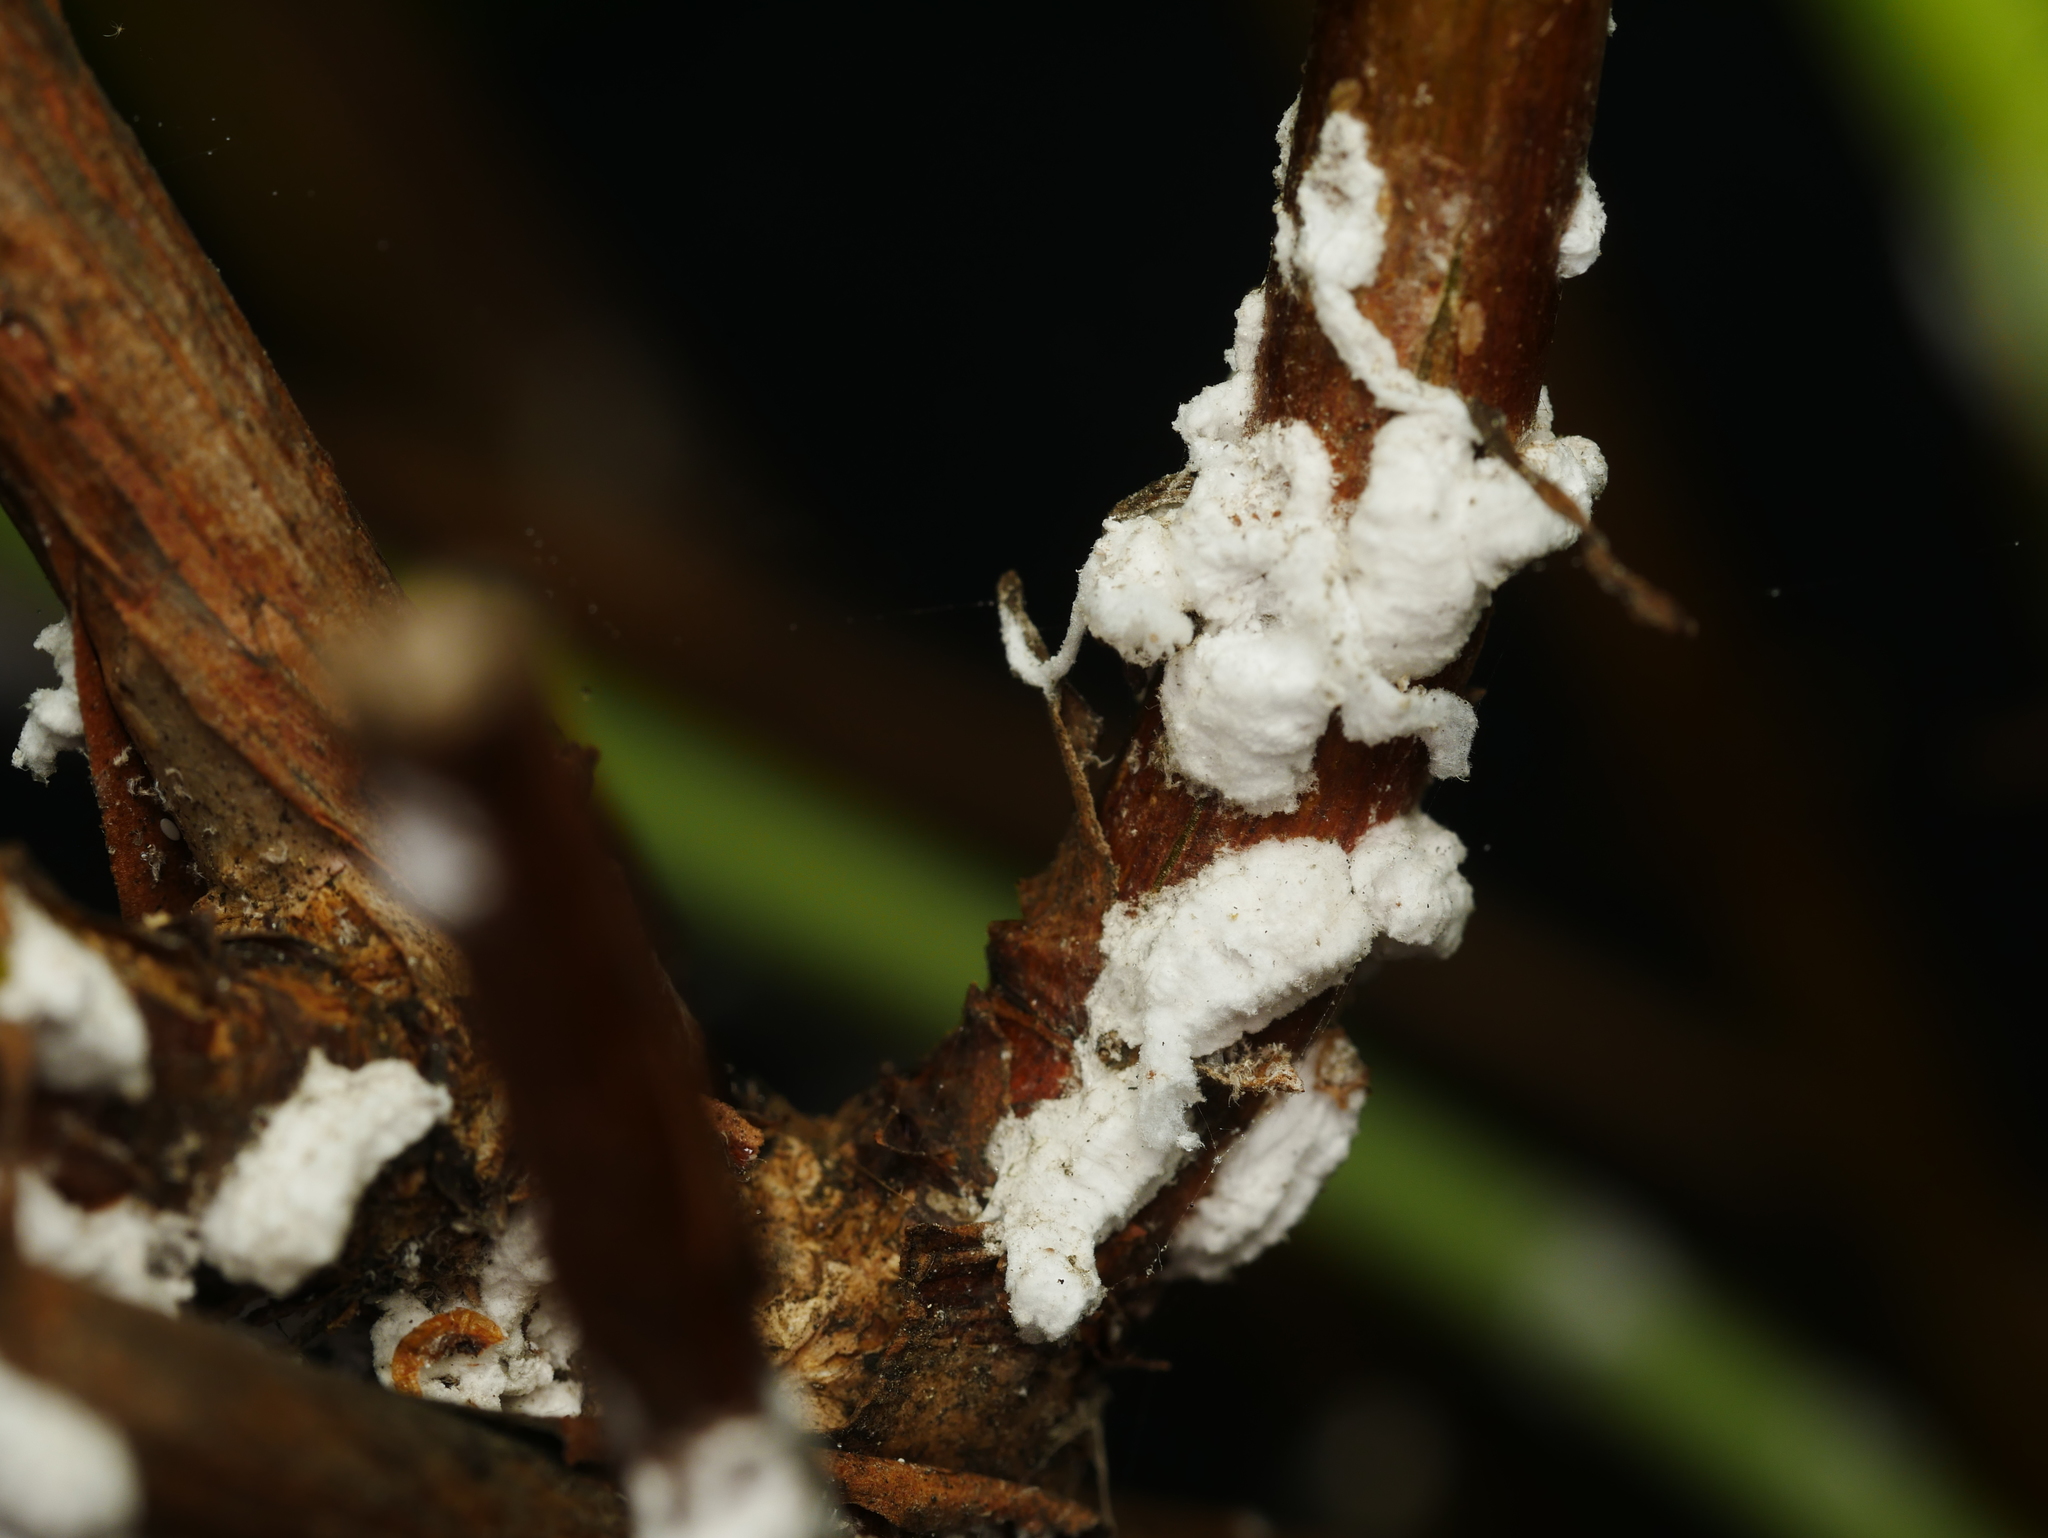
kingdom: Animalia
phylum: Arthropoda
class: Insecta
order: Hemiptera
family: Coccidae
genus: Pulvinaria
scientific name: Pulvinaria hydrangeae
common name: Cottony hydrangea scale
